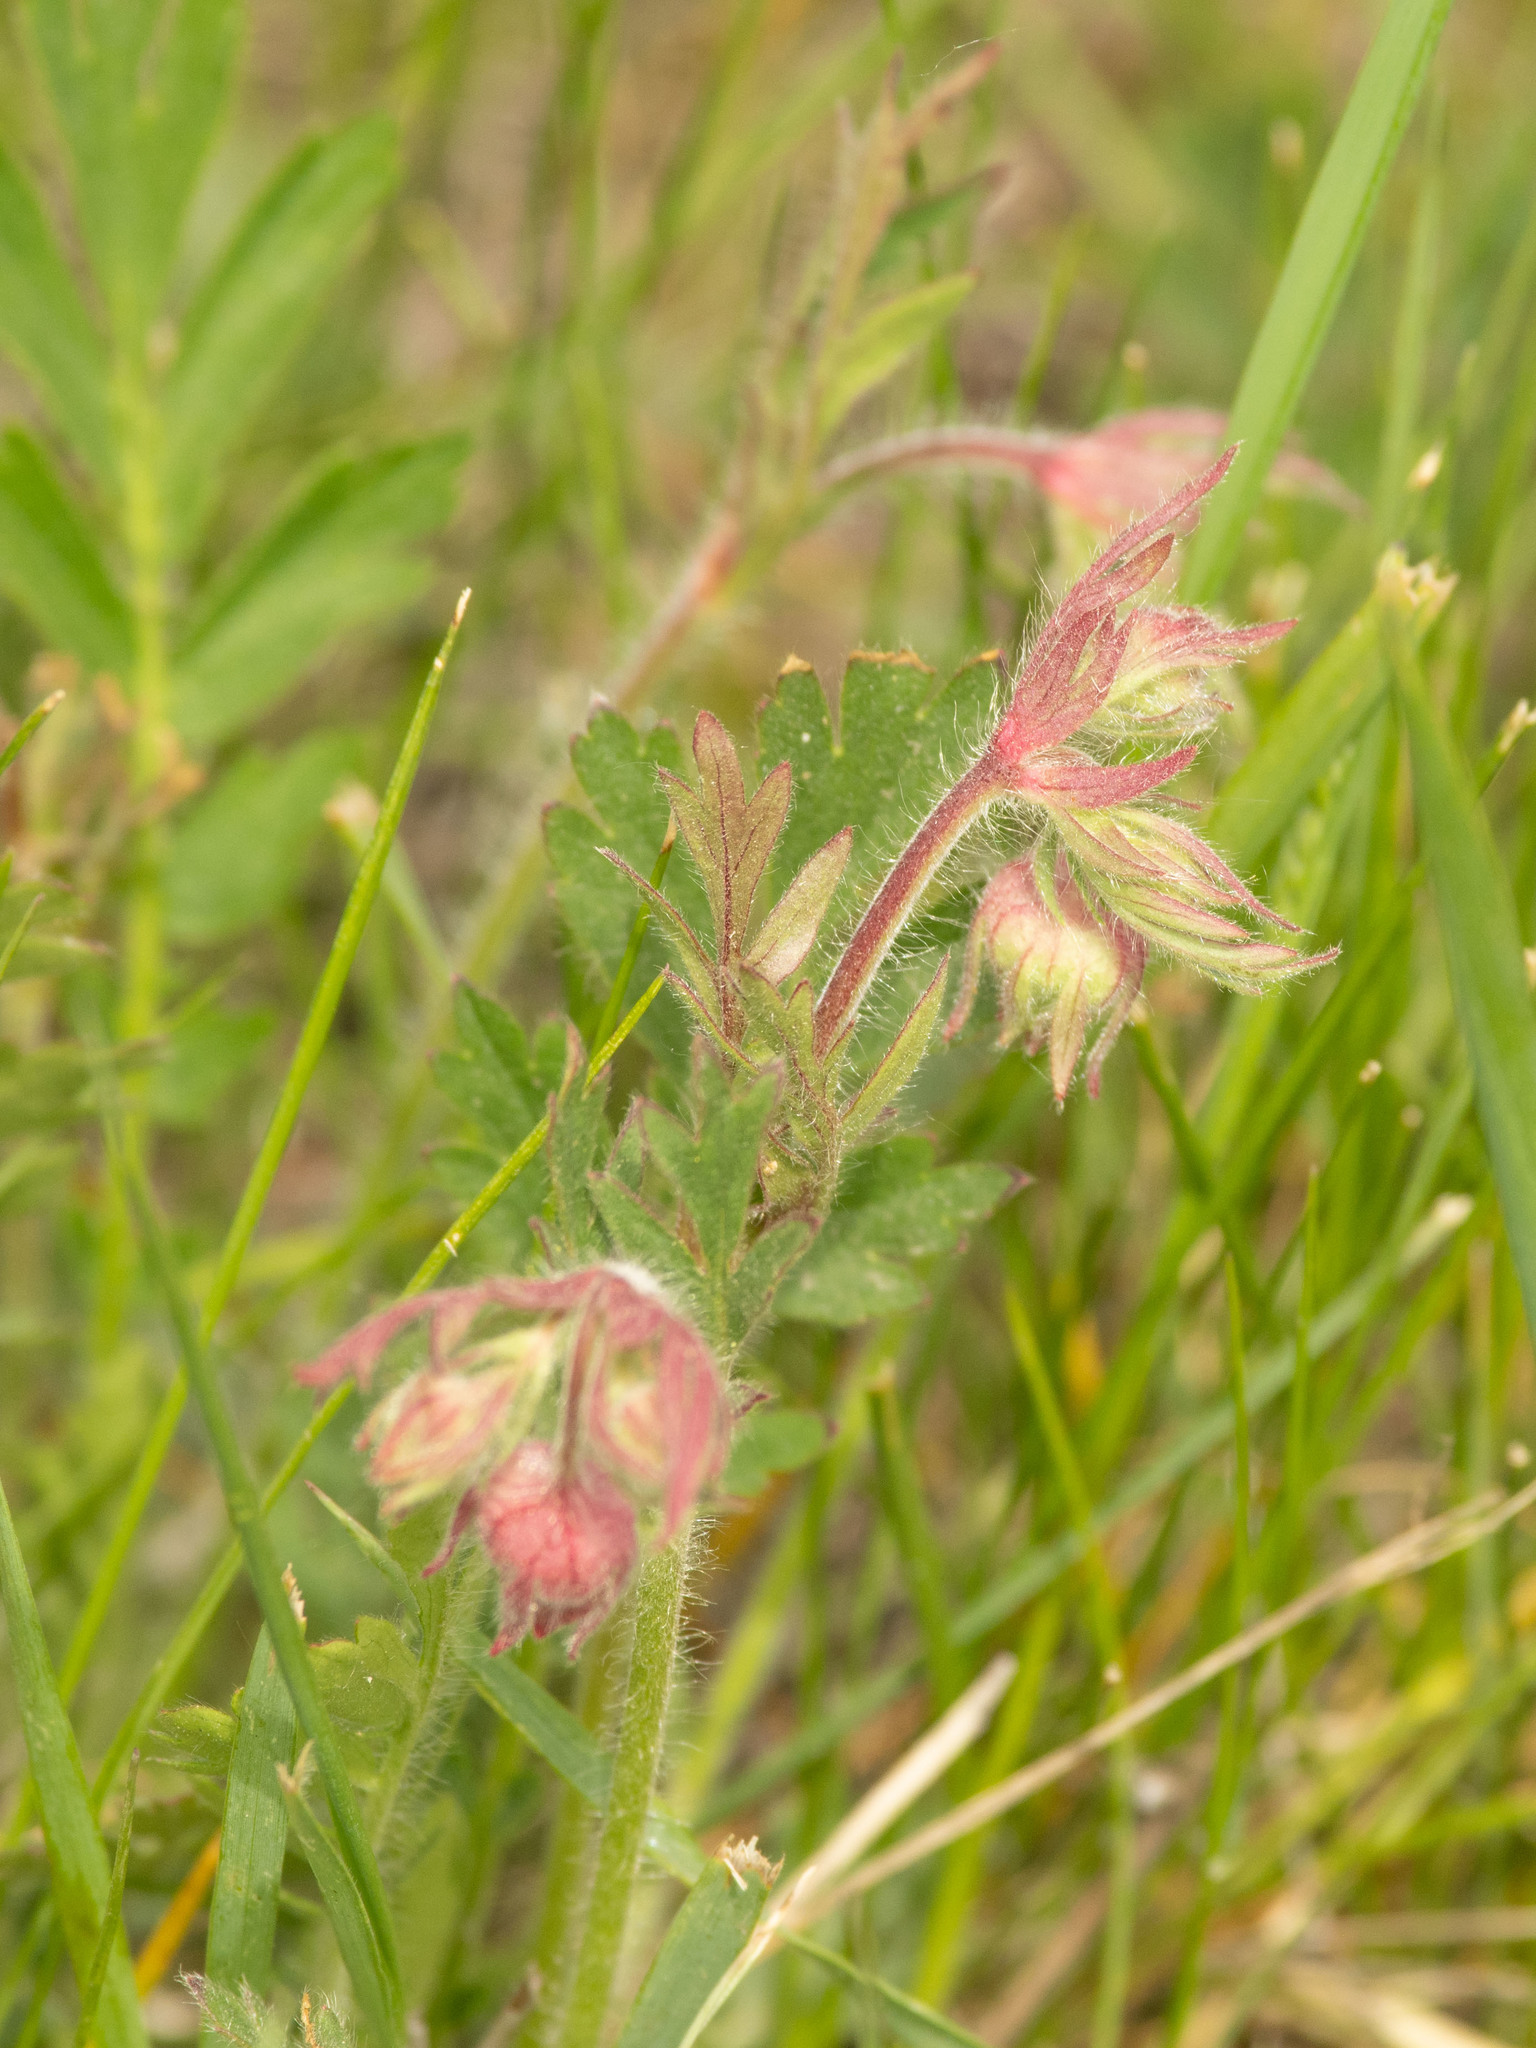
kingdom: Plantae
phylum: Tracheophyta
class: Magnoliopsida
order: Rosales
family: Rosaceae
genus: Geum
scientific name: Geum triflorum
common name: Old man's whiskers
